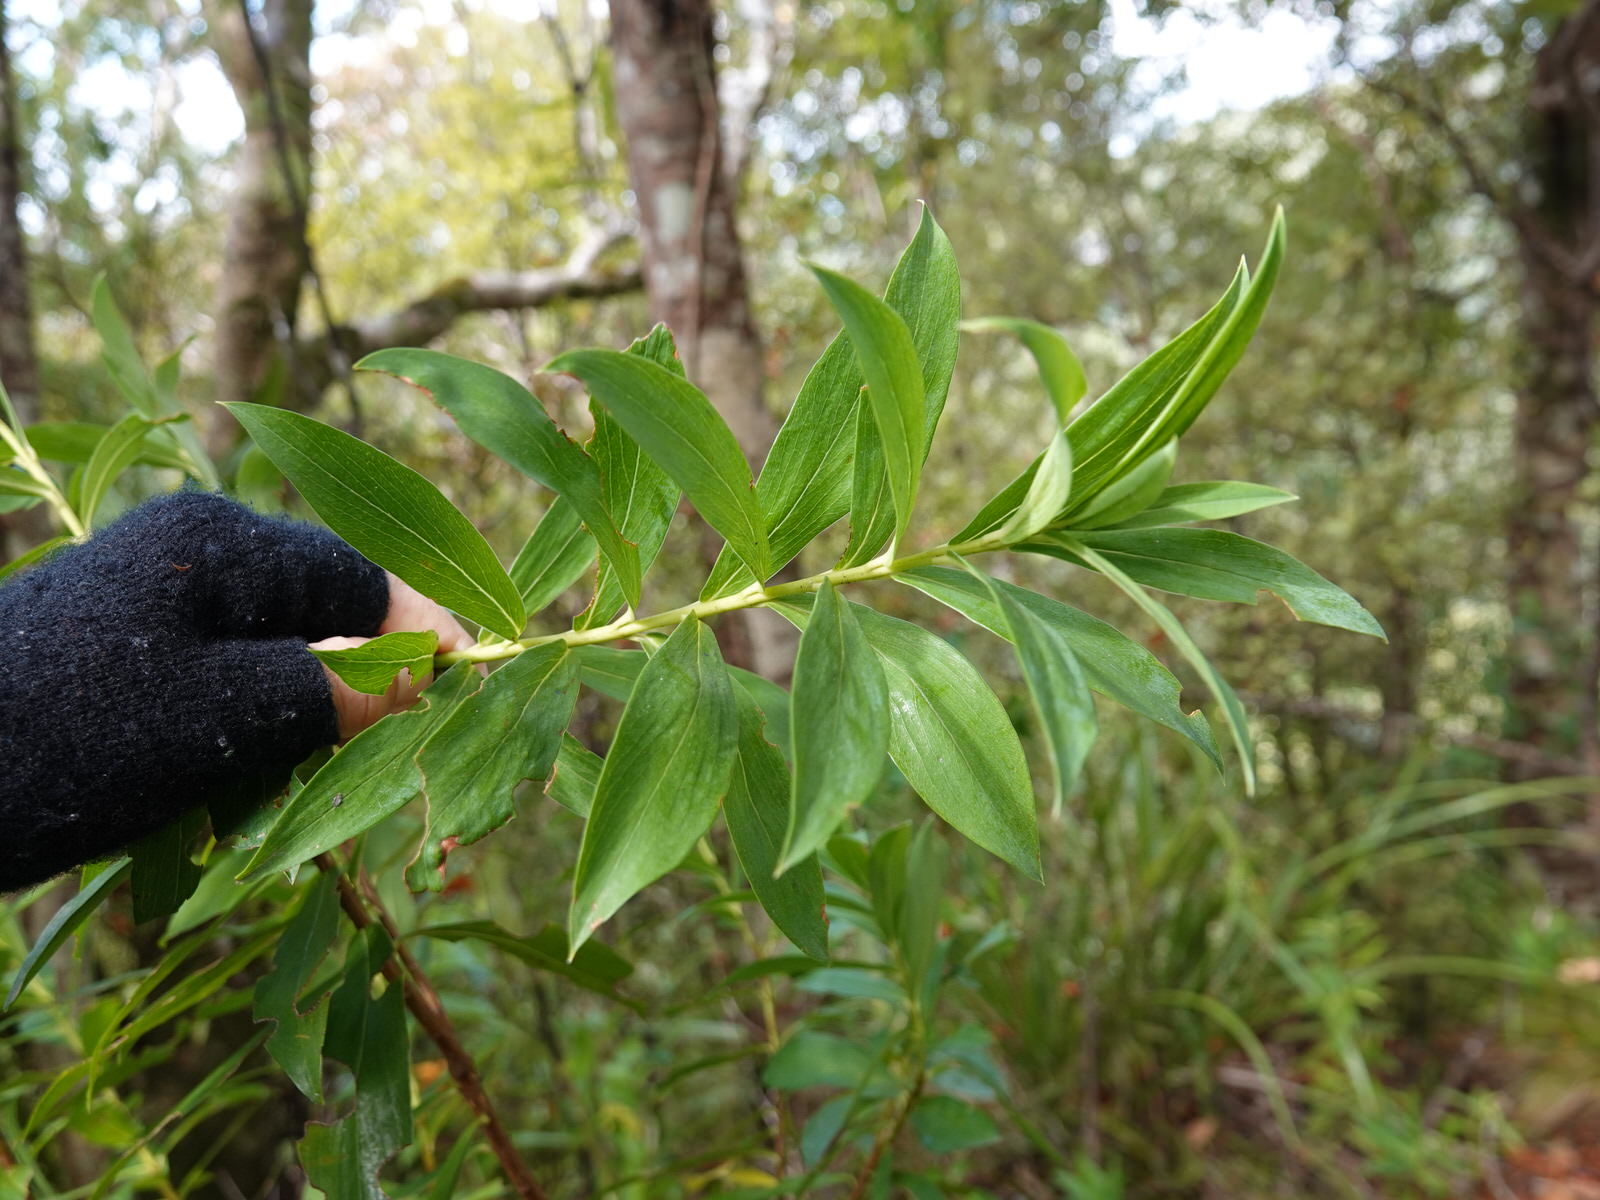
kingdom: Plantae
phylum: Tracheophyta
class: Magnoliopsida
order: Malvales
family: Thymelaeaceae
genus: Pimelea
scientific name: Pimelea longifolia
